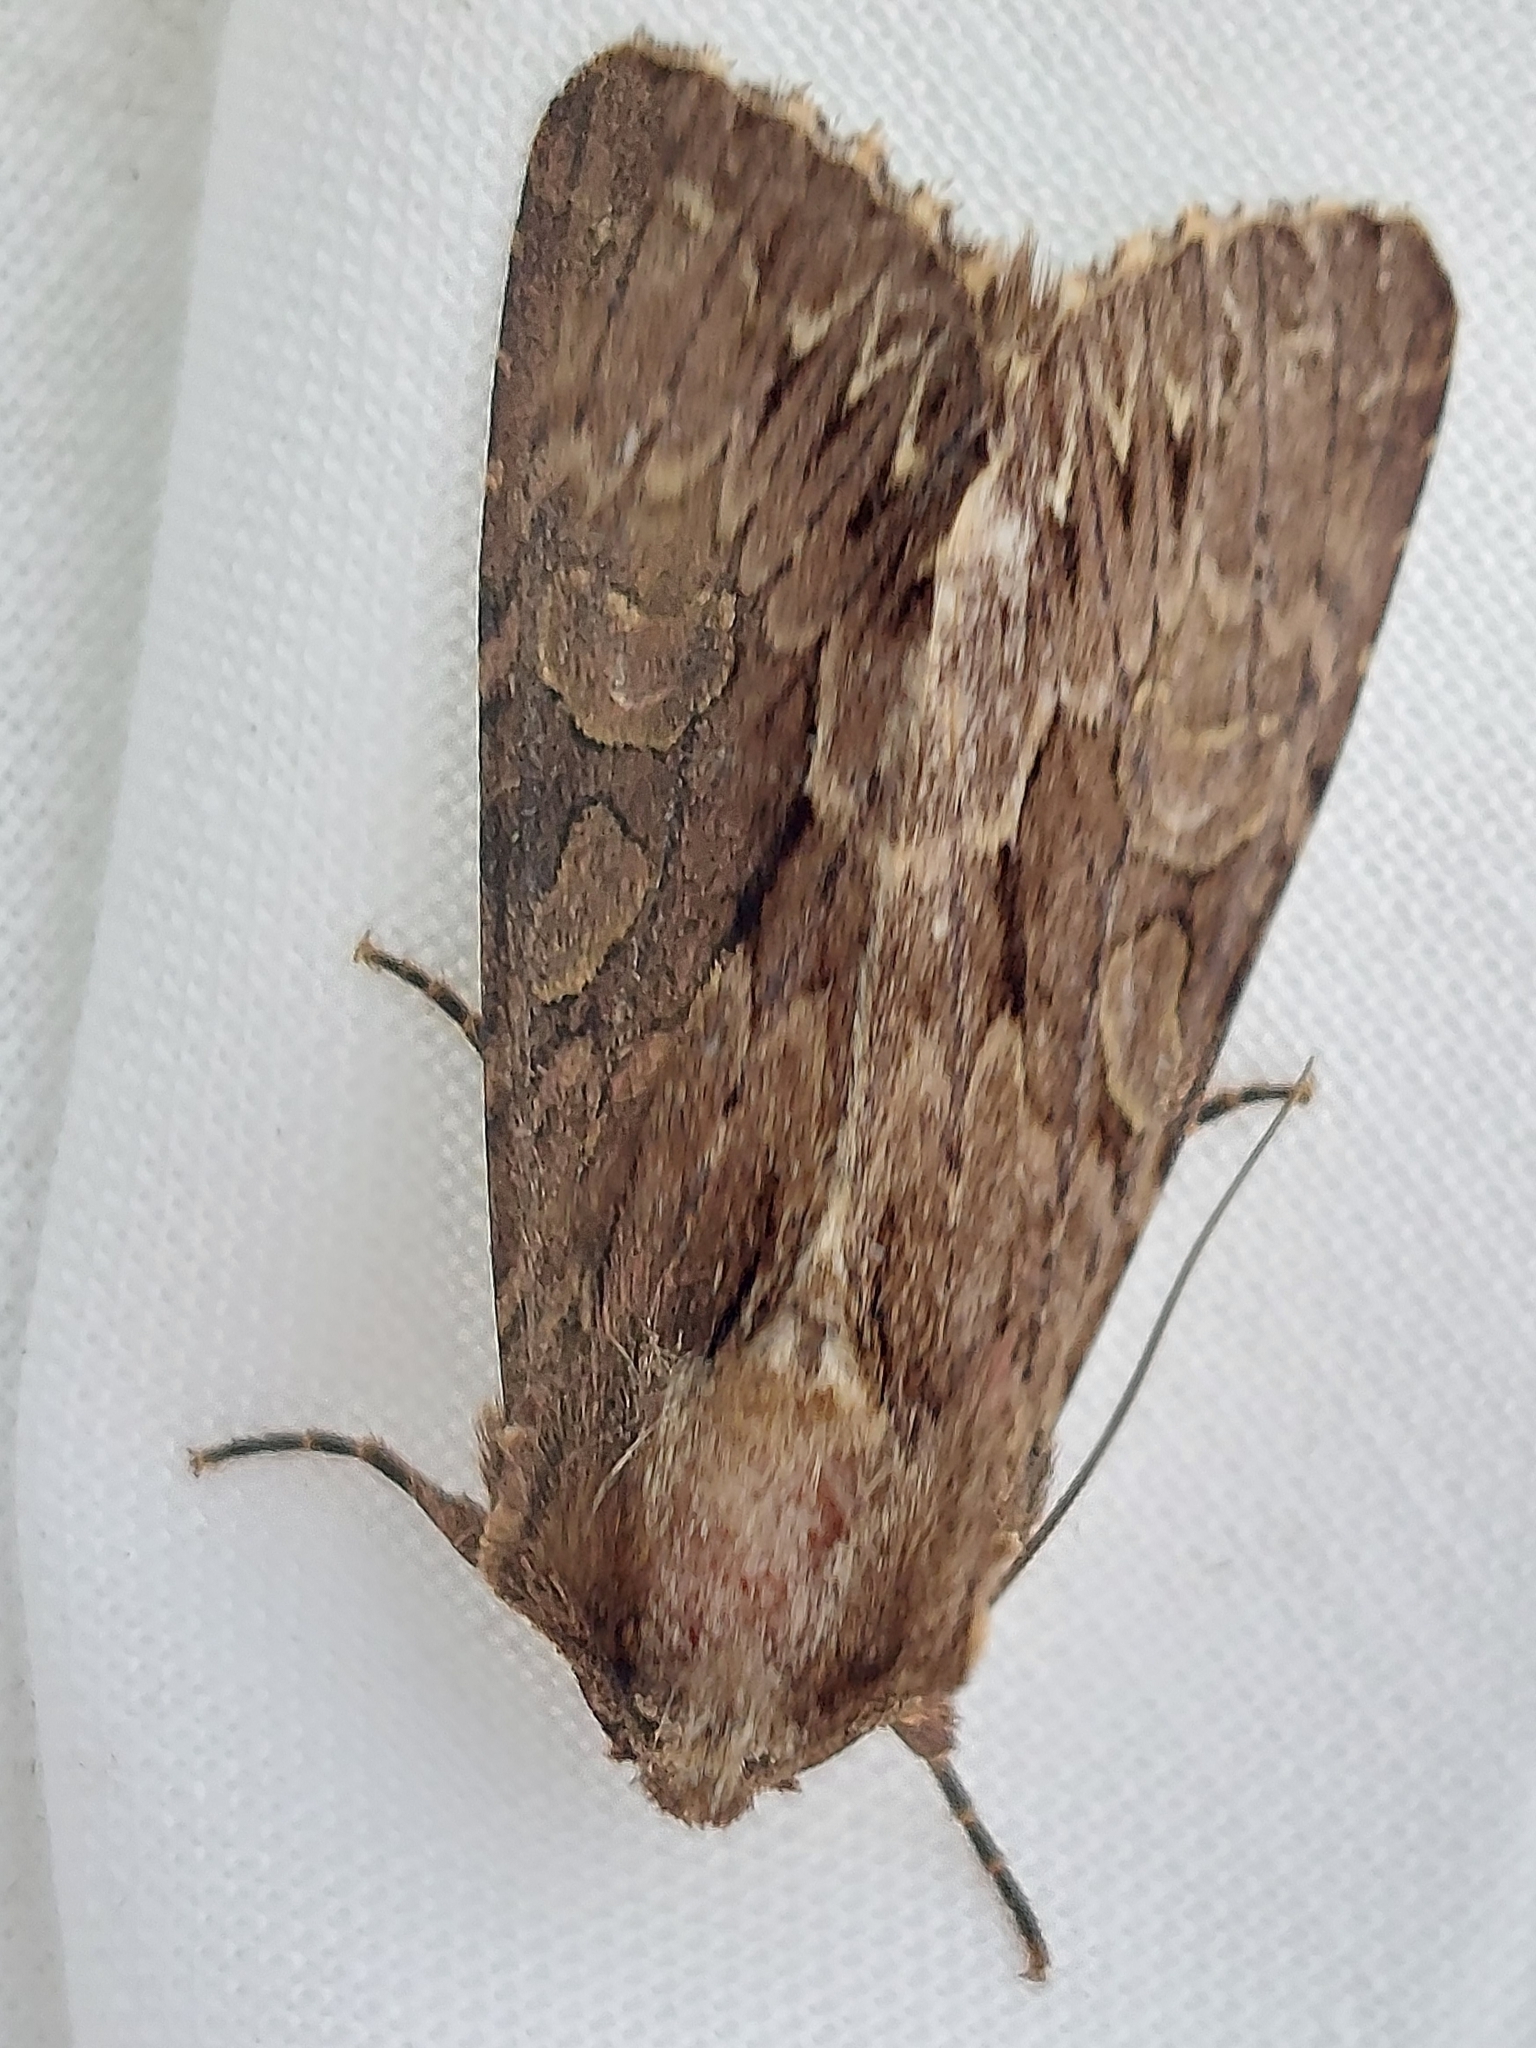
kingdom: Animalia
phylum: Arthropoda
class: Insecta
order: Lepidoptera
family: Noctuidae
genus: Apamea
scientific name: Apamea monoglypha
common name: Dark arches
